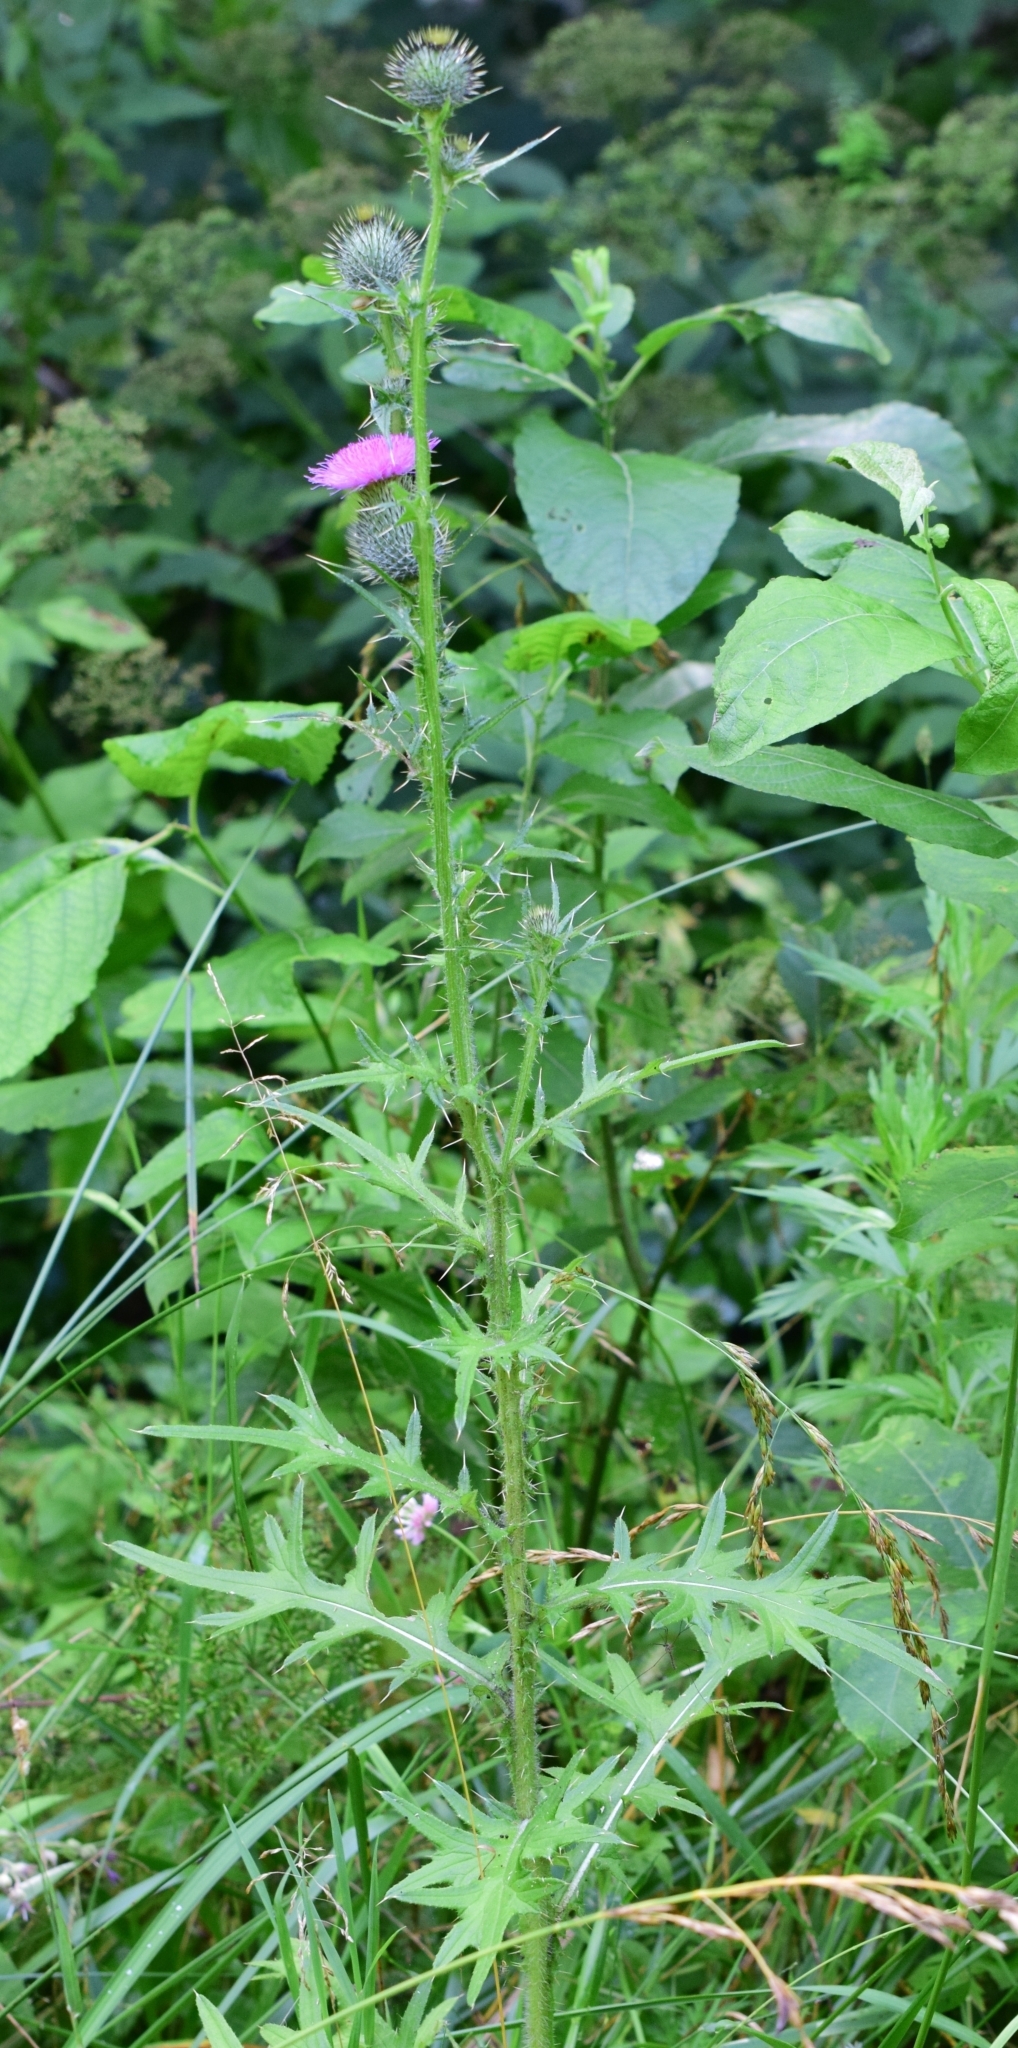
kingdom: Plantae
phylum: Tracheophyta
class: Magnoliopsida
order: Asterales
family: Asteraceae
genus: Cirsium
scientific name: Cirsium vulgare
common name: Bull thistle
